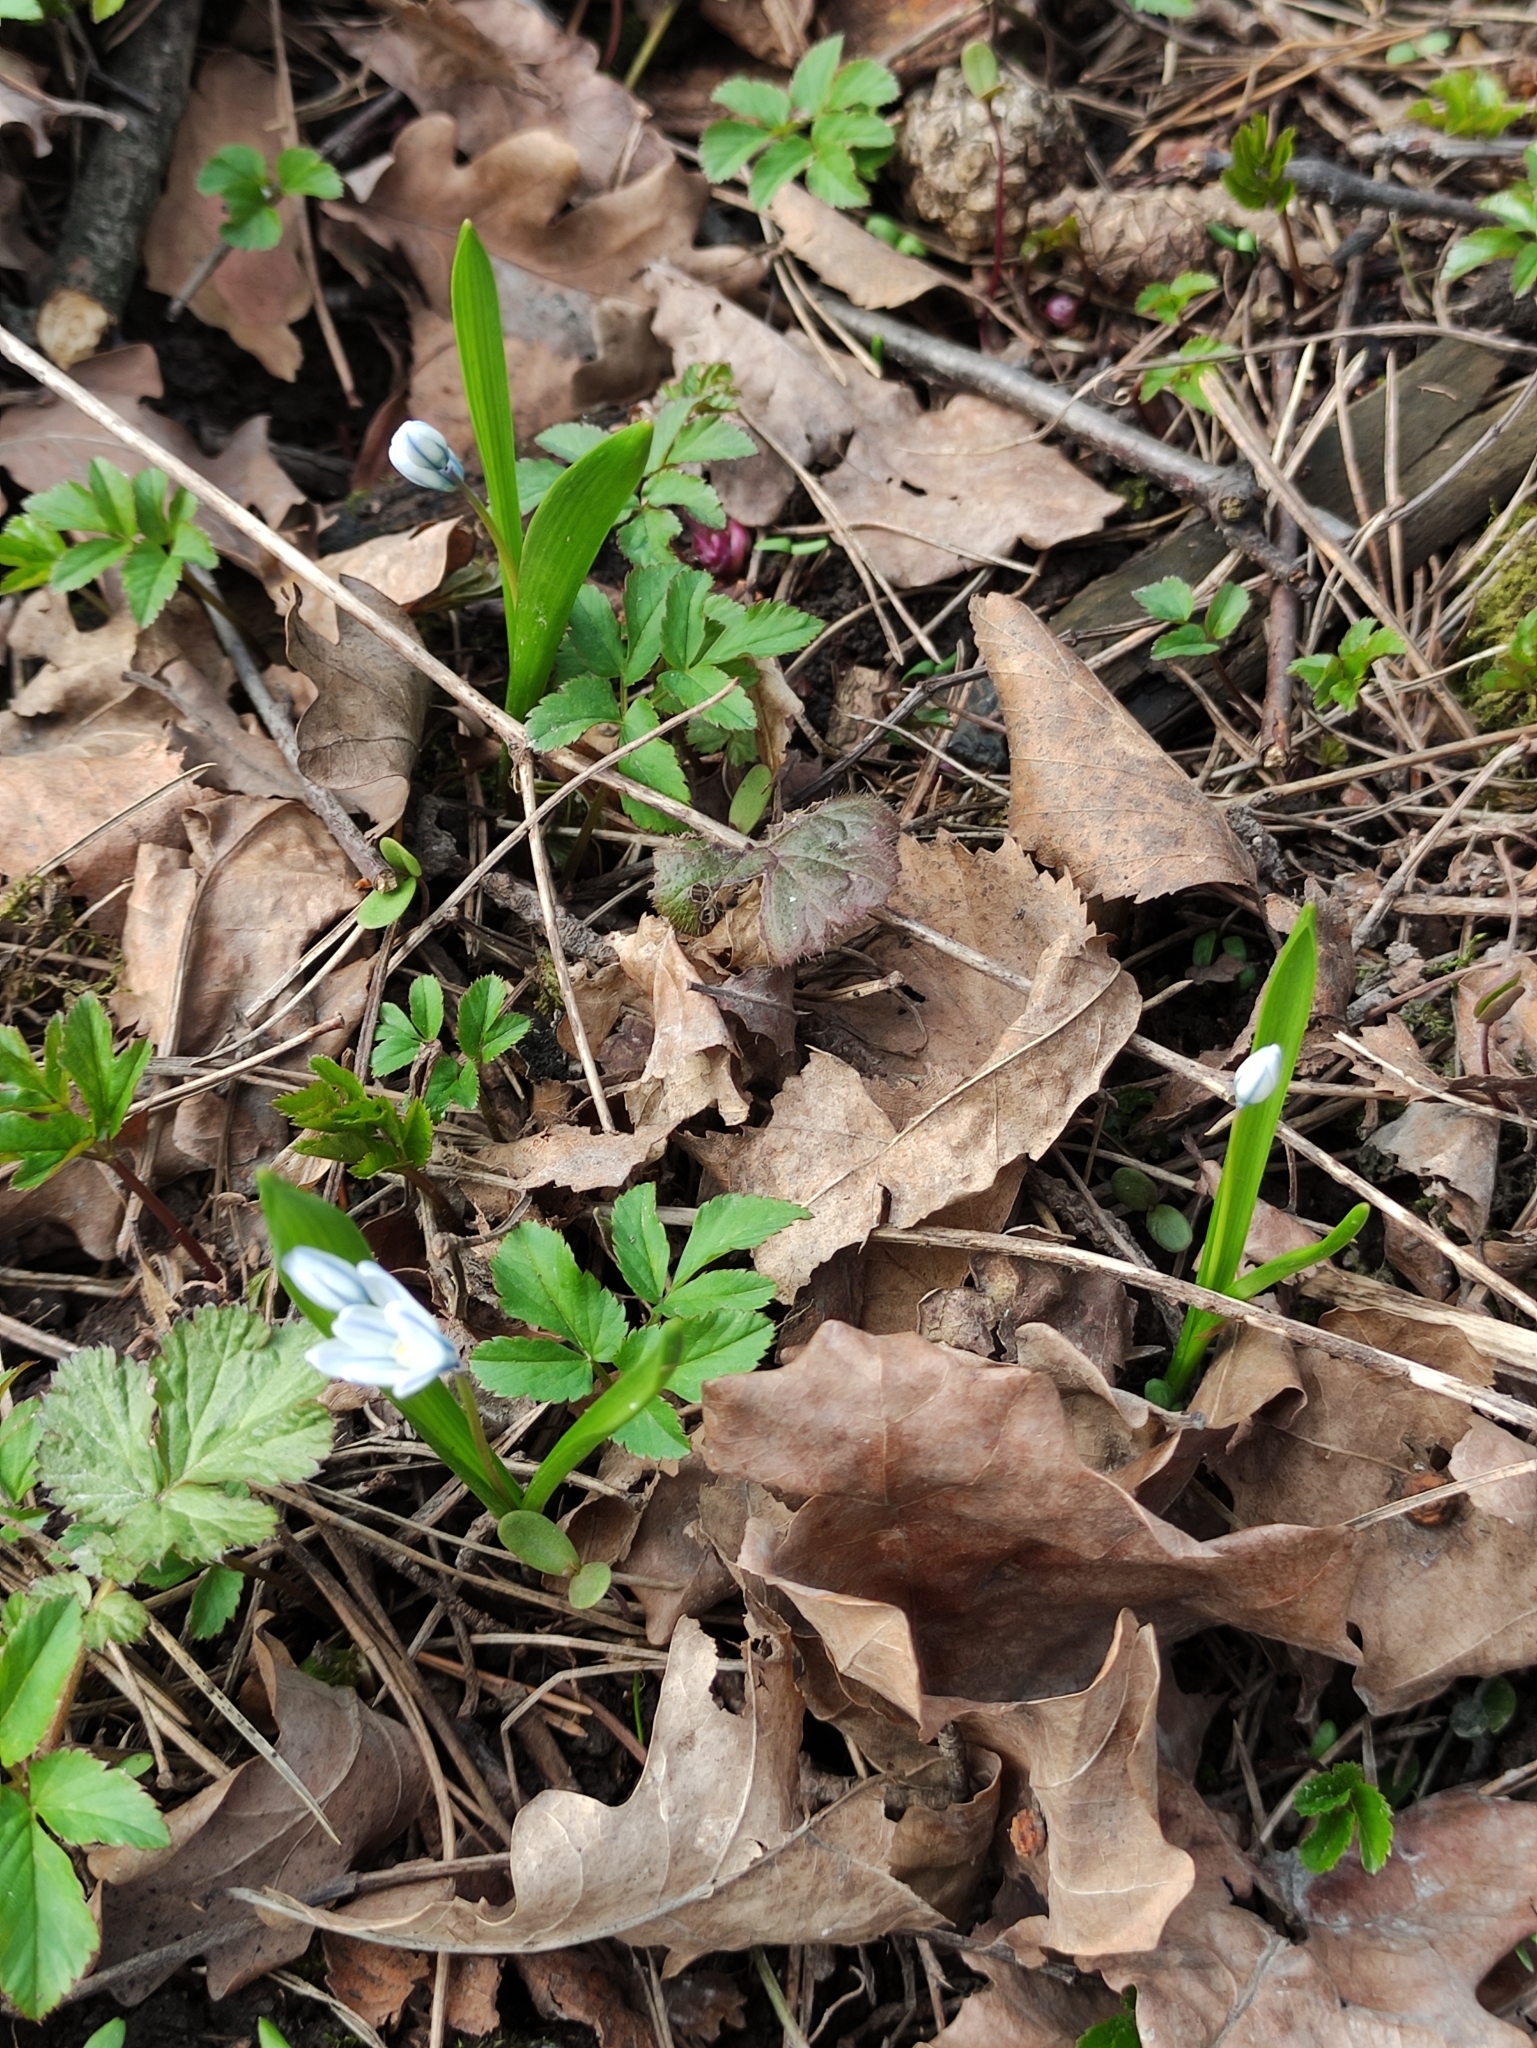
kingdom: Plantae
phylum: Tracheophyta
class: Liliopsida
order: Asparagales
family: Asparagaceae
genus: Puschkinia
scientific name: Puschkinia scilloides
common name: Striped squill
